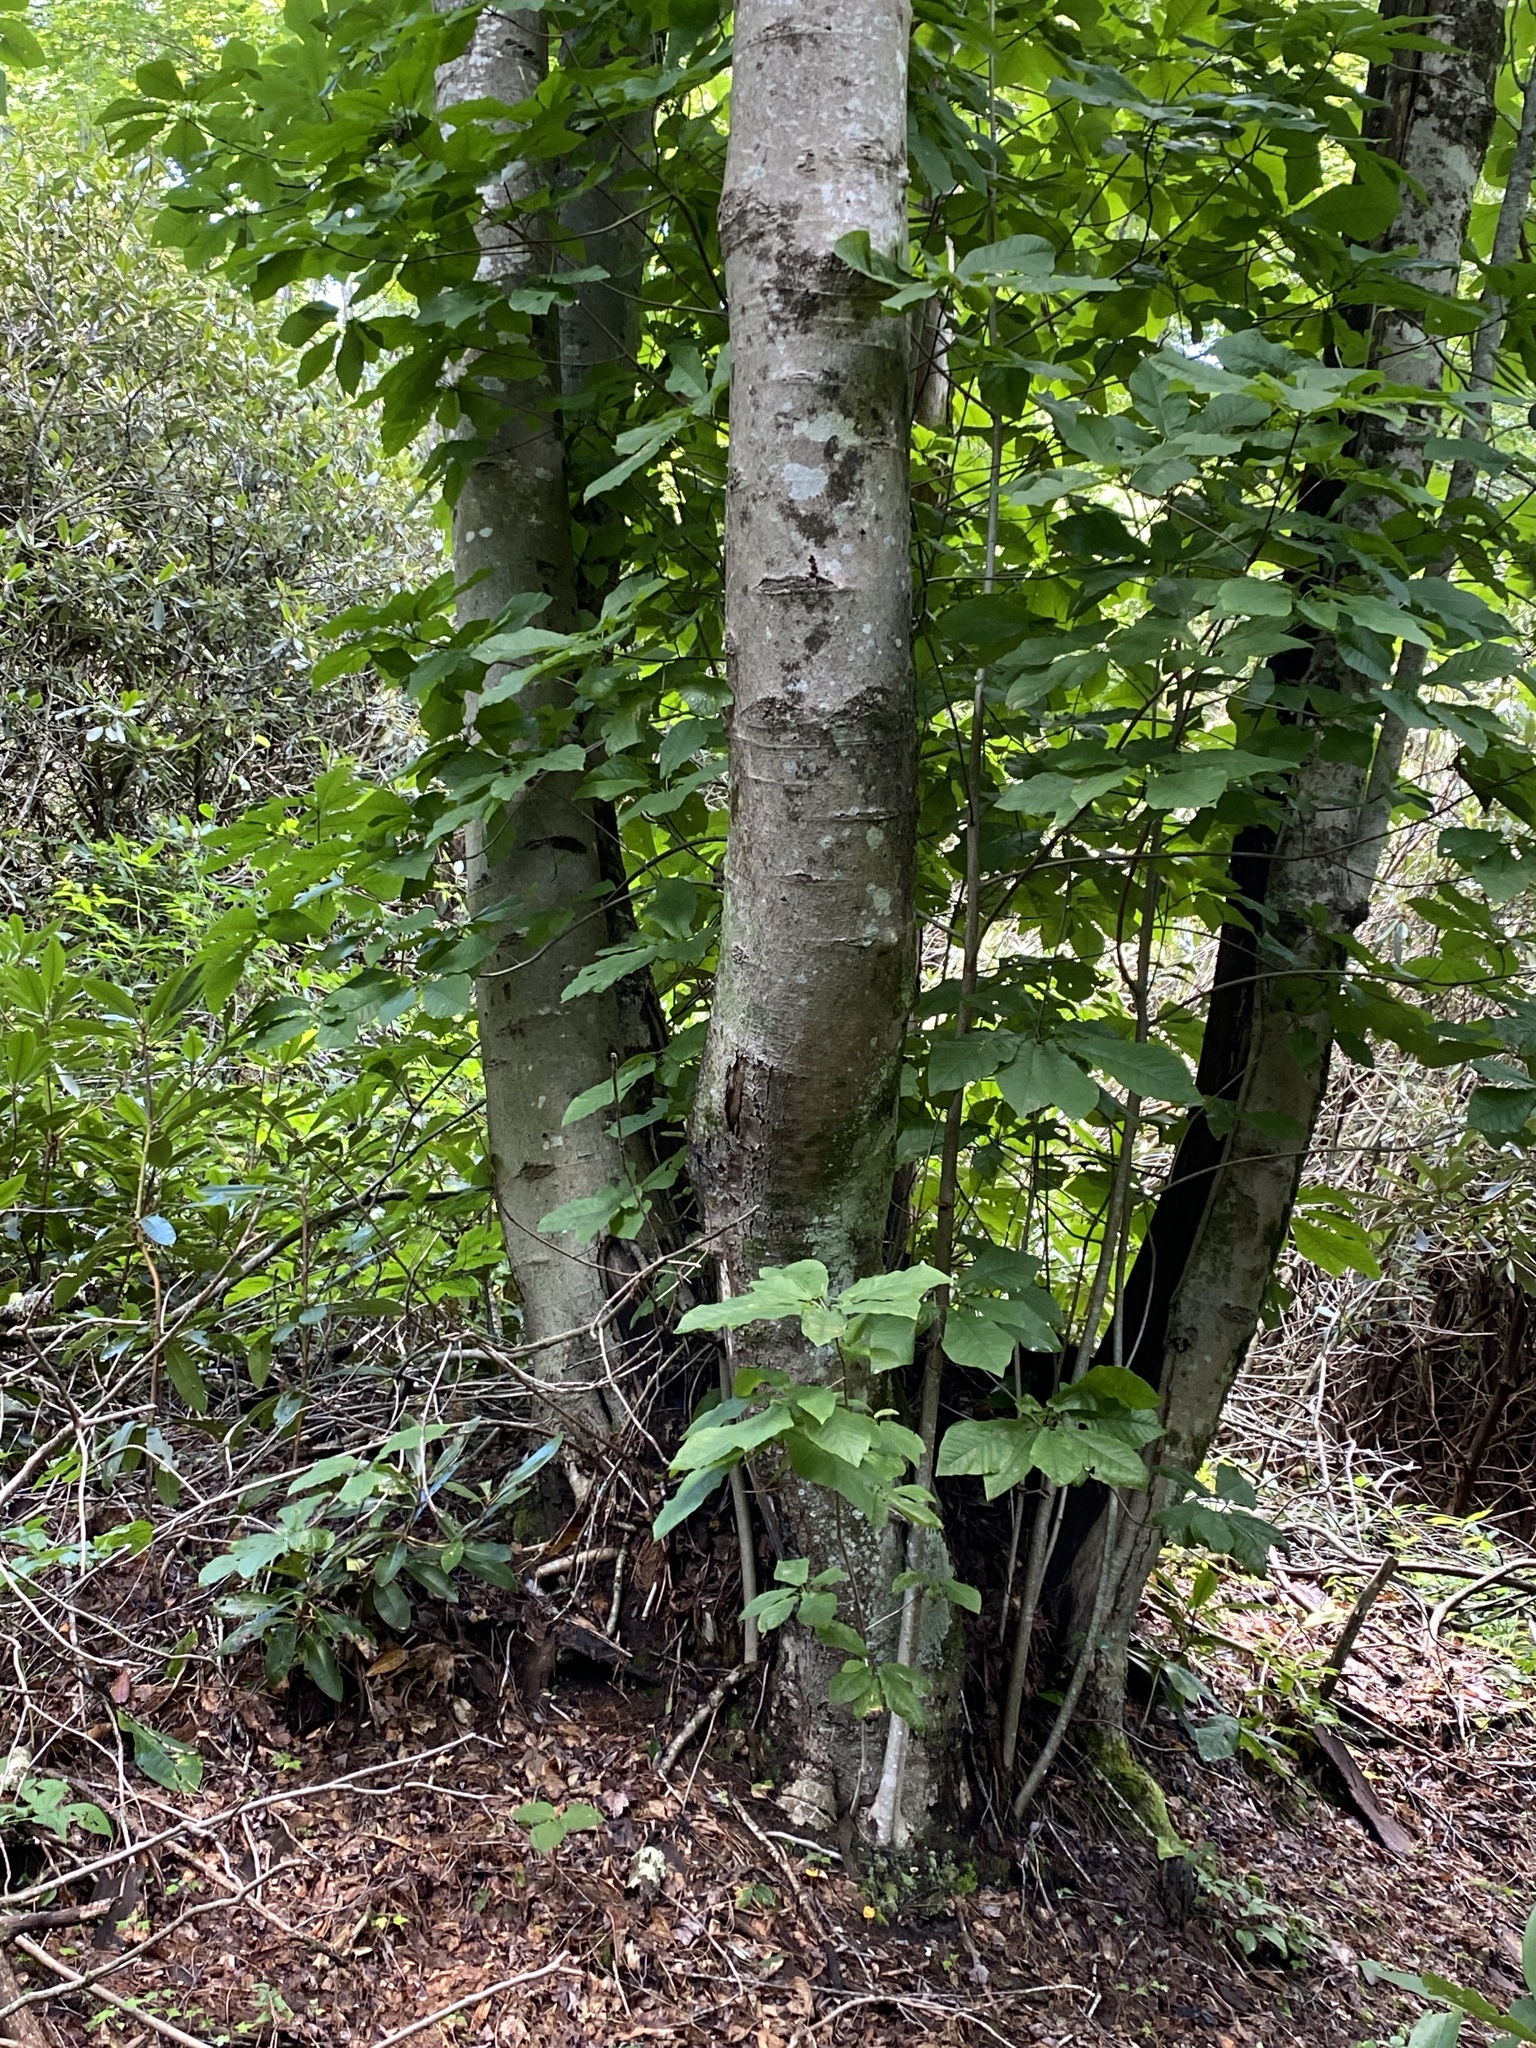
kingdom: Plantae
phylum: Tracheophyta
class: Magnoliopsida
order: Magnoliales
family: Magnoliaceae
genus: Magnolia
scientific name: Magnolia fraseri
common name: Fraser's magnolia
